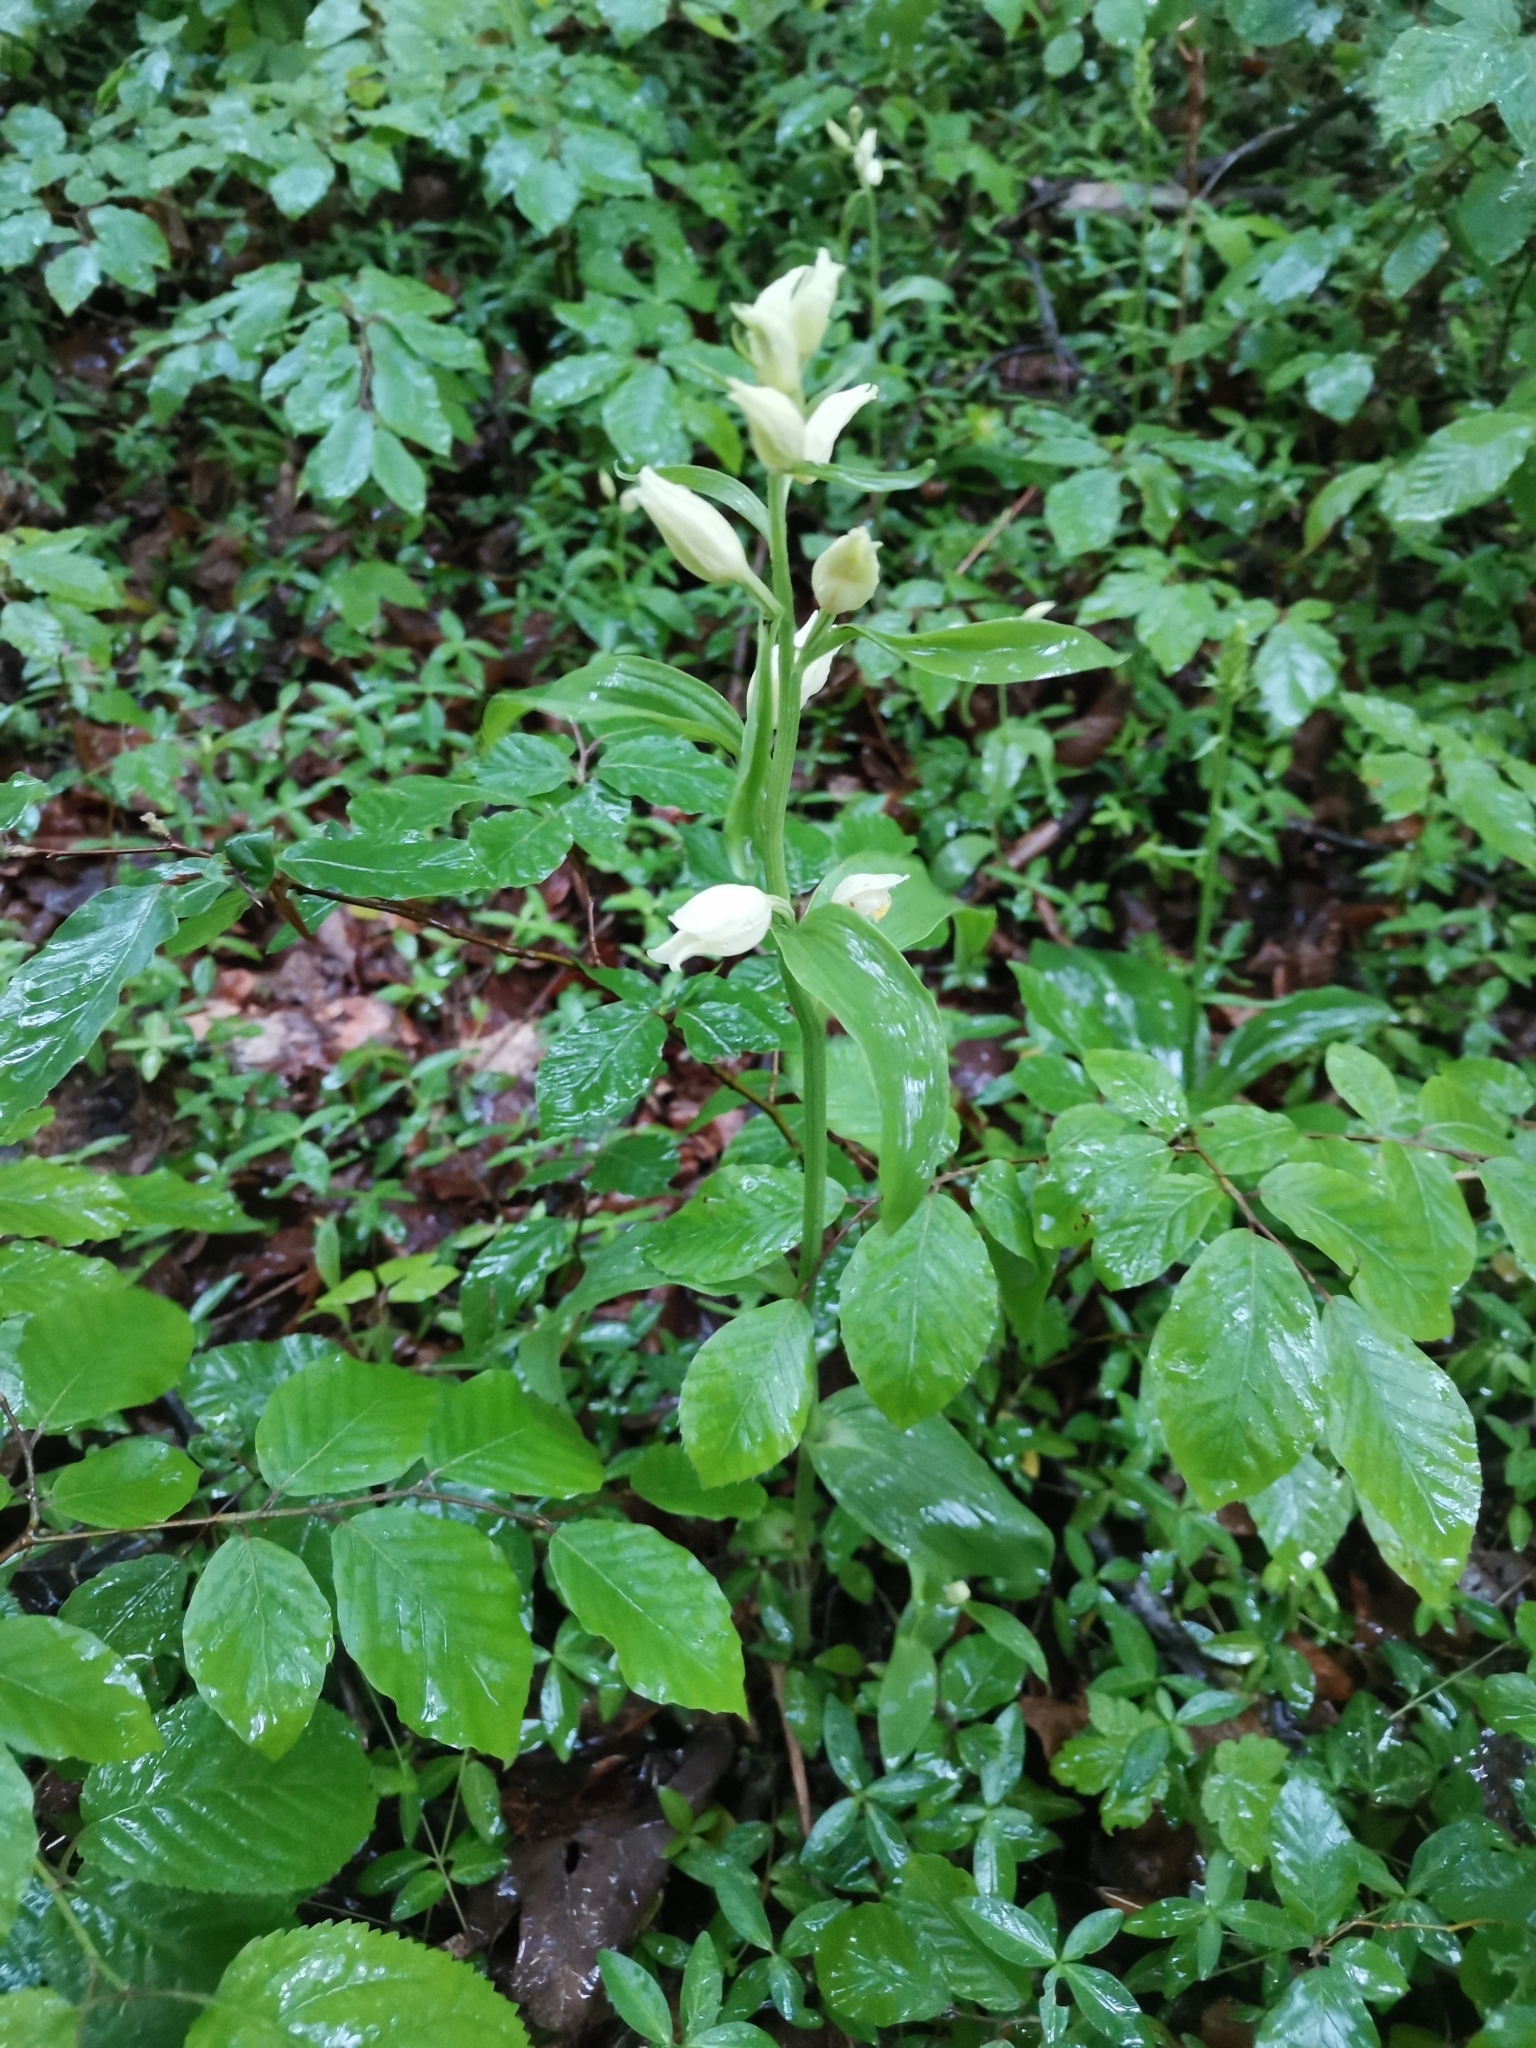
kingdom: Plantae
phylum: Tracheophyta
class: Liliopsida
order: Asparagales
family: Orchidaceae
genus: Cephalanthera
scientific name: Cephalanthera damasonium
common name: White helleborine
